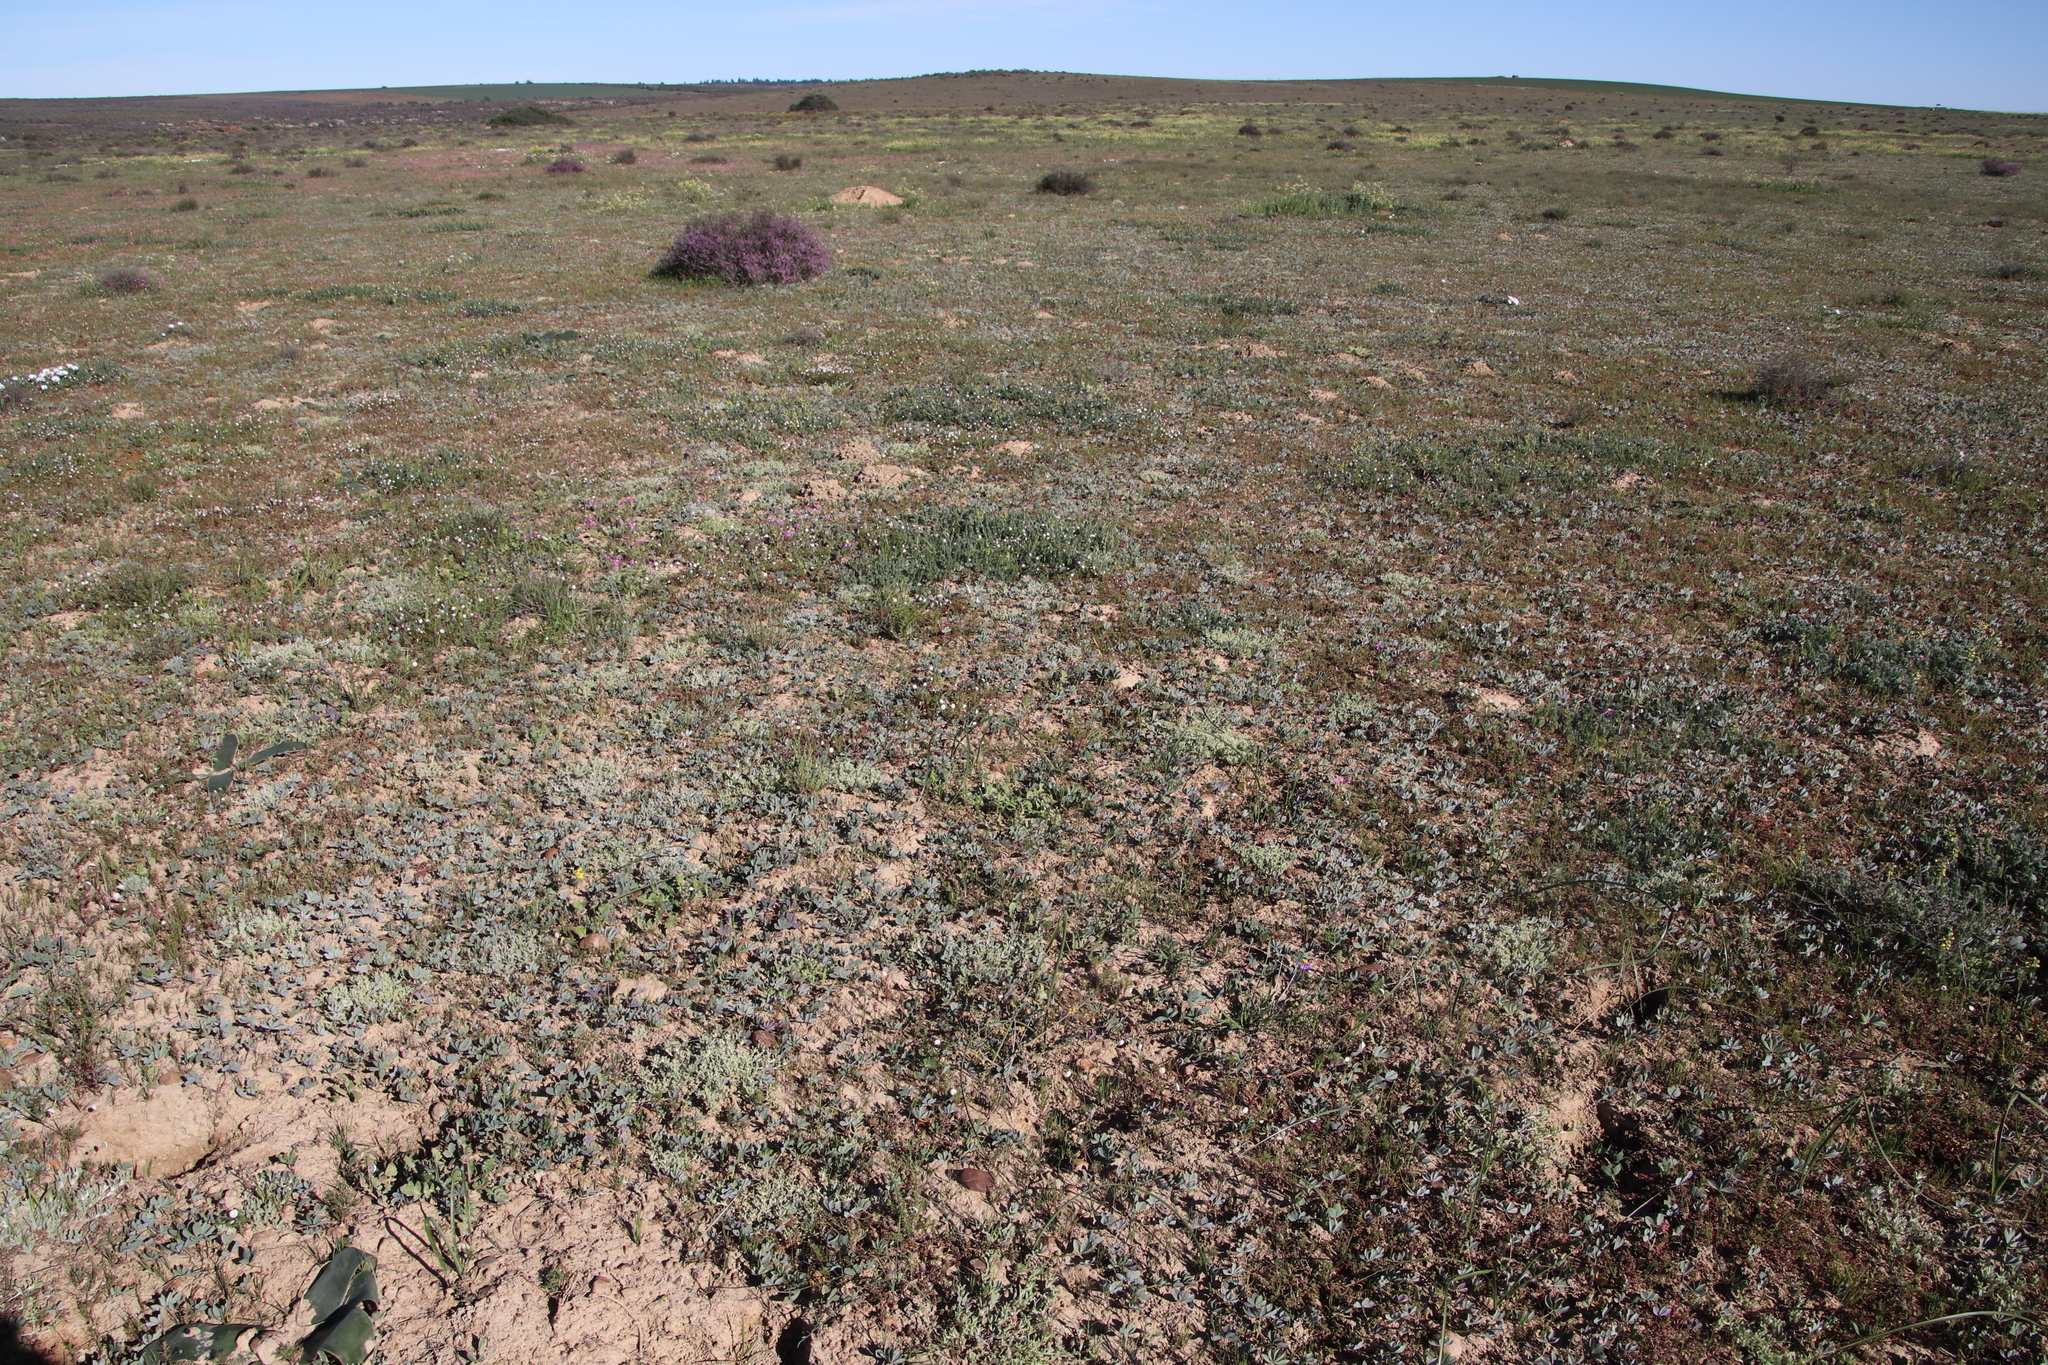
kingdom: Plantae
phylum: Tracheophyta
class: Magnoliopsida
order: Oxalidales
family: Oxalidaceae
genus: Oxalis
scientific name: Oxalis flava
